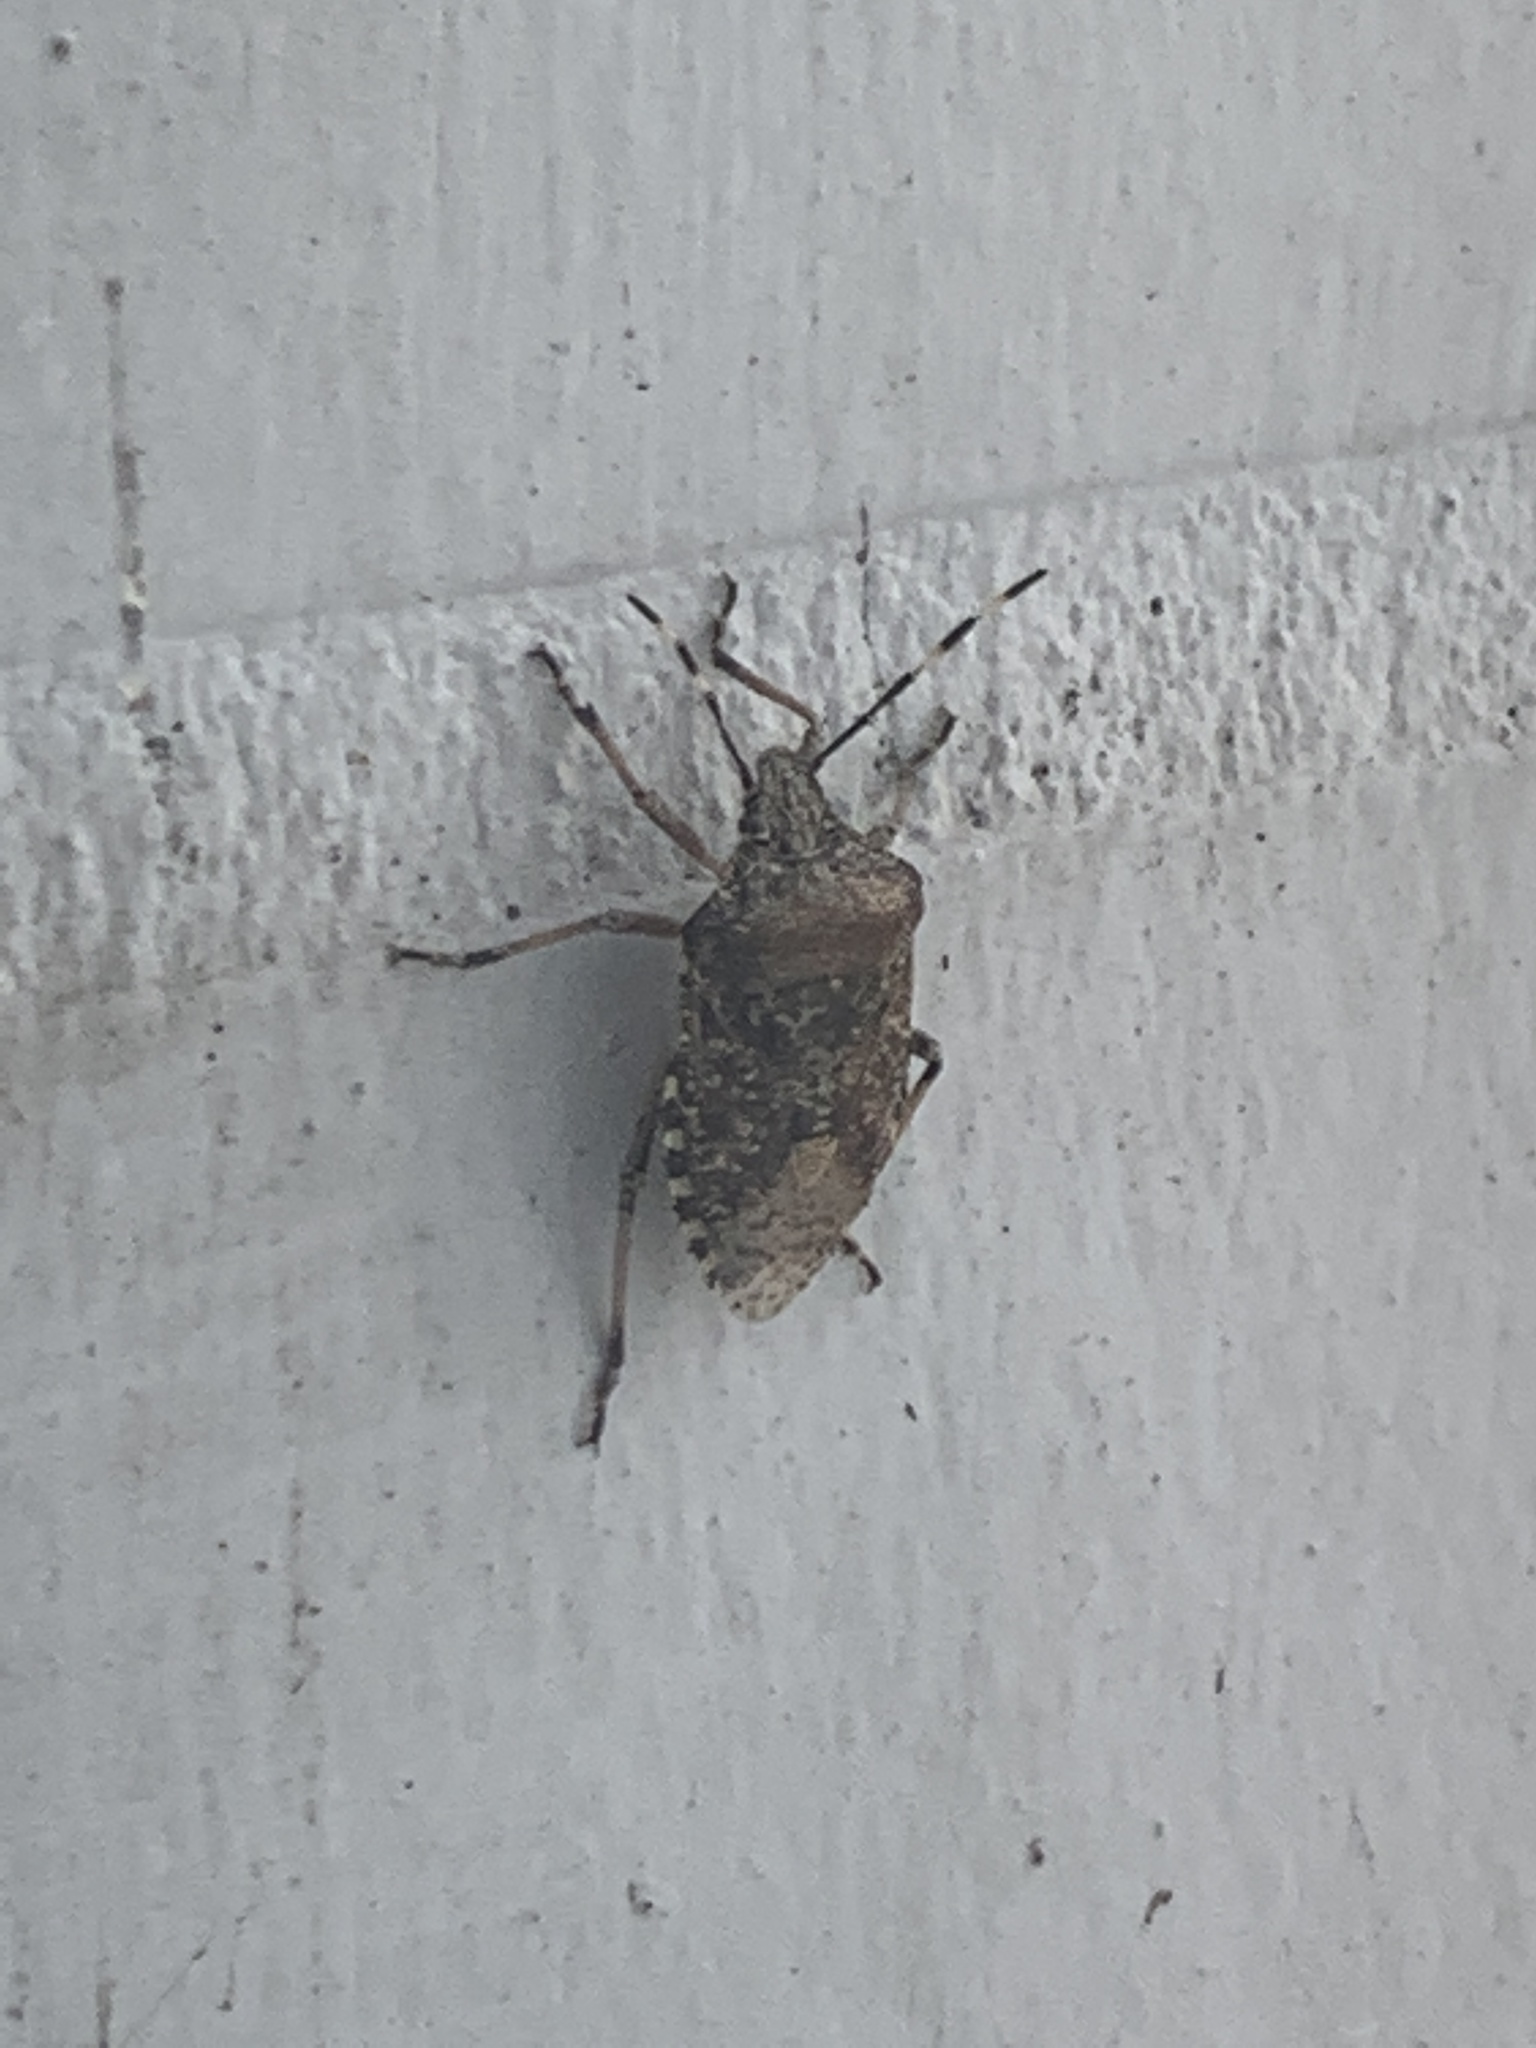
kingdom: Animalia
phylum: Arthropoda
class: Insecta
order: Hemiptera
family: Pentatomidae
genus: Rhaphigaster
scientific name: Rhaphigaster nebulosa
